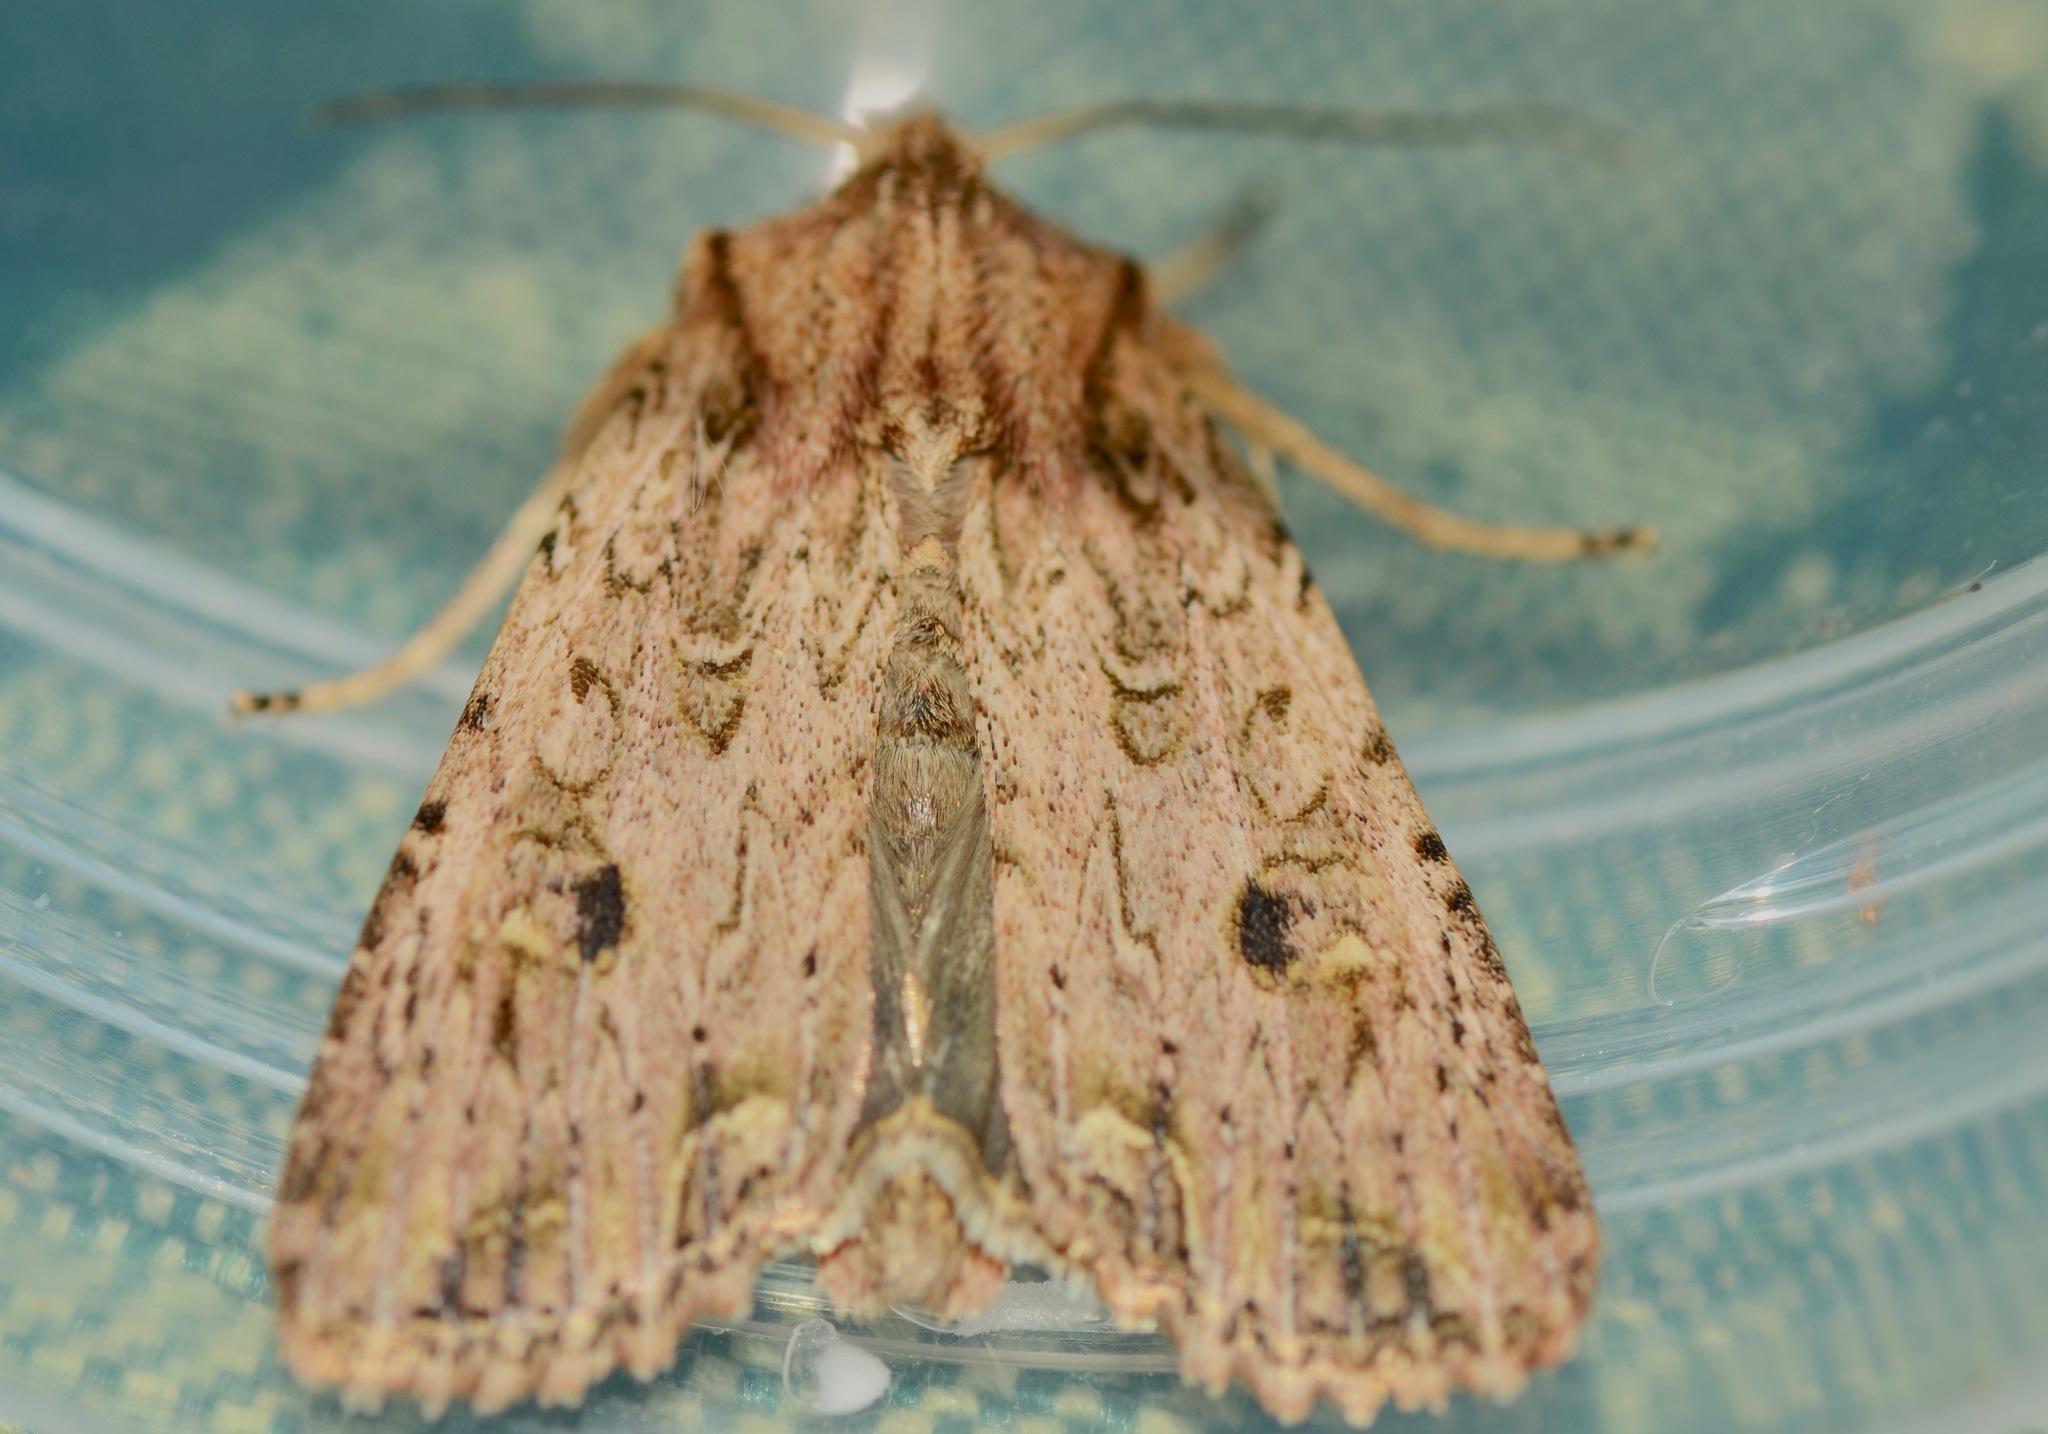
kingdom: Animalia
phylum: Arthropoda
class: Insecta
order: Lepidoptera
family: Noctuidae
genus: Ichneutica
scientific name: Ichneutica lignana
